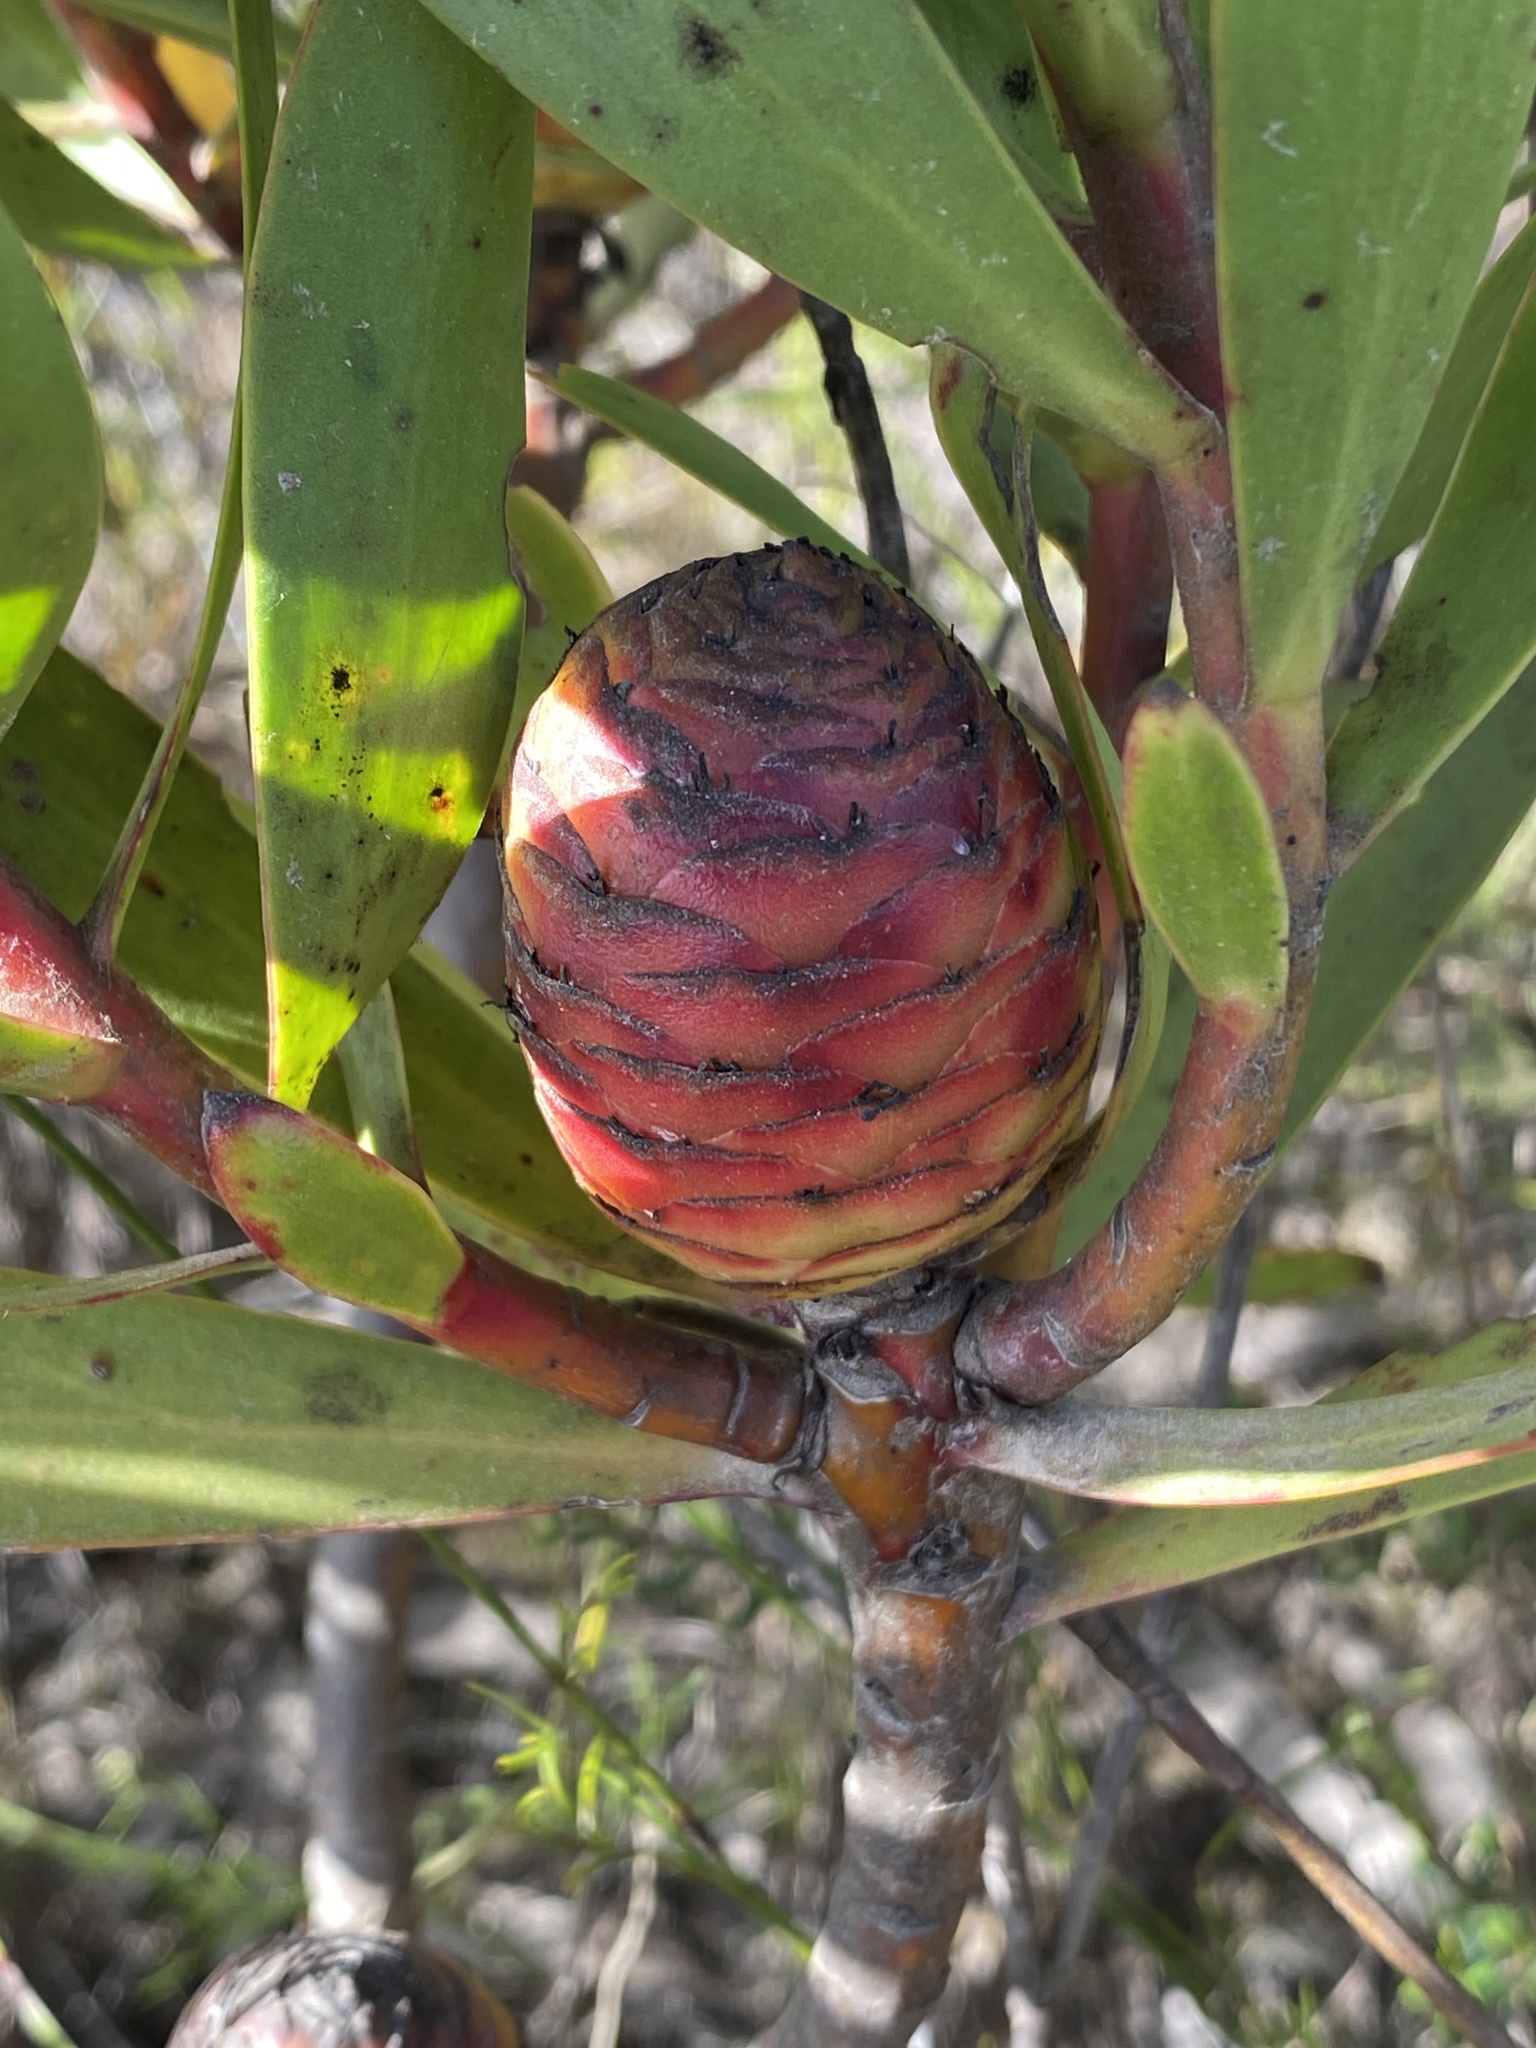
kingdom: Plantae
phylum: Tracheophyta
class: Magnoliopsida
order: Proteales
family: Proteaceae
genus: Leucadendron
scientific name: Leucadendron gandogeri
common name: Broad-leaf conebush
